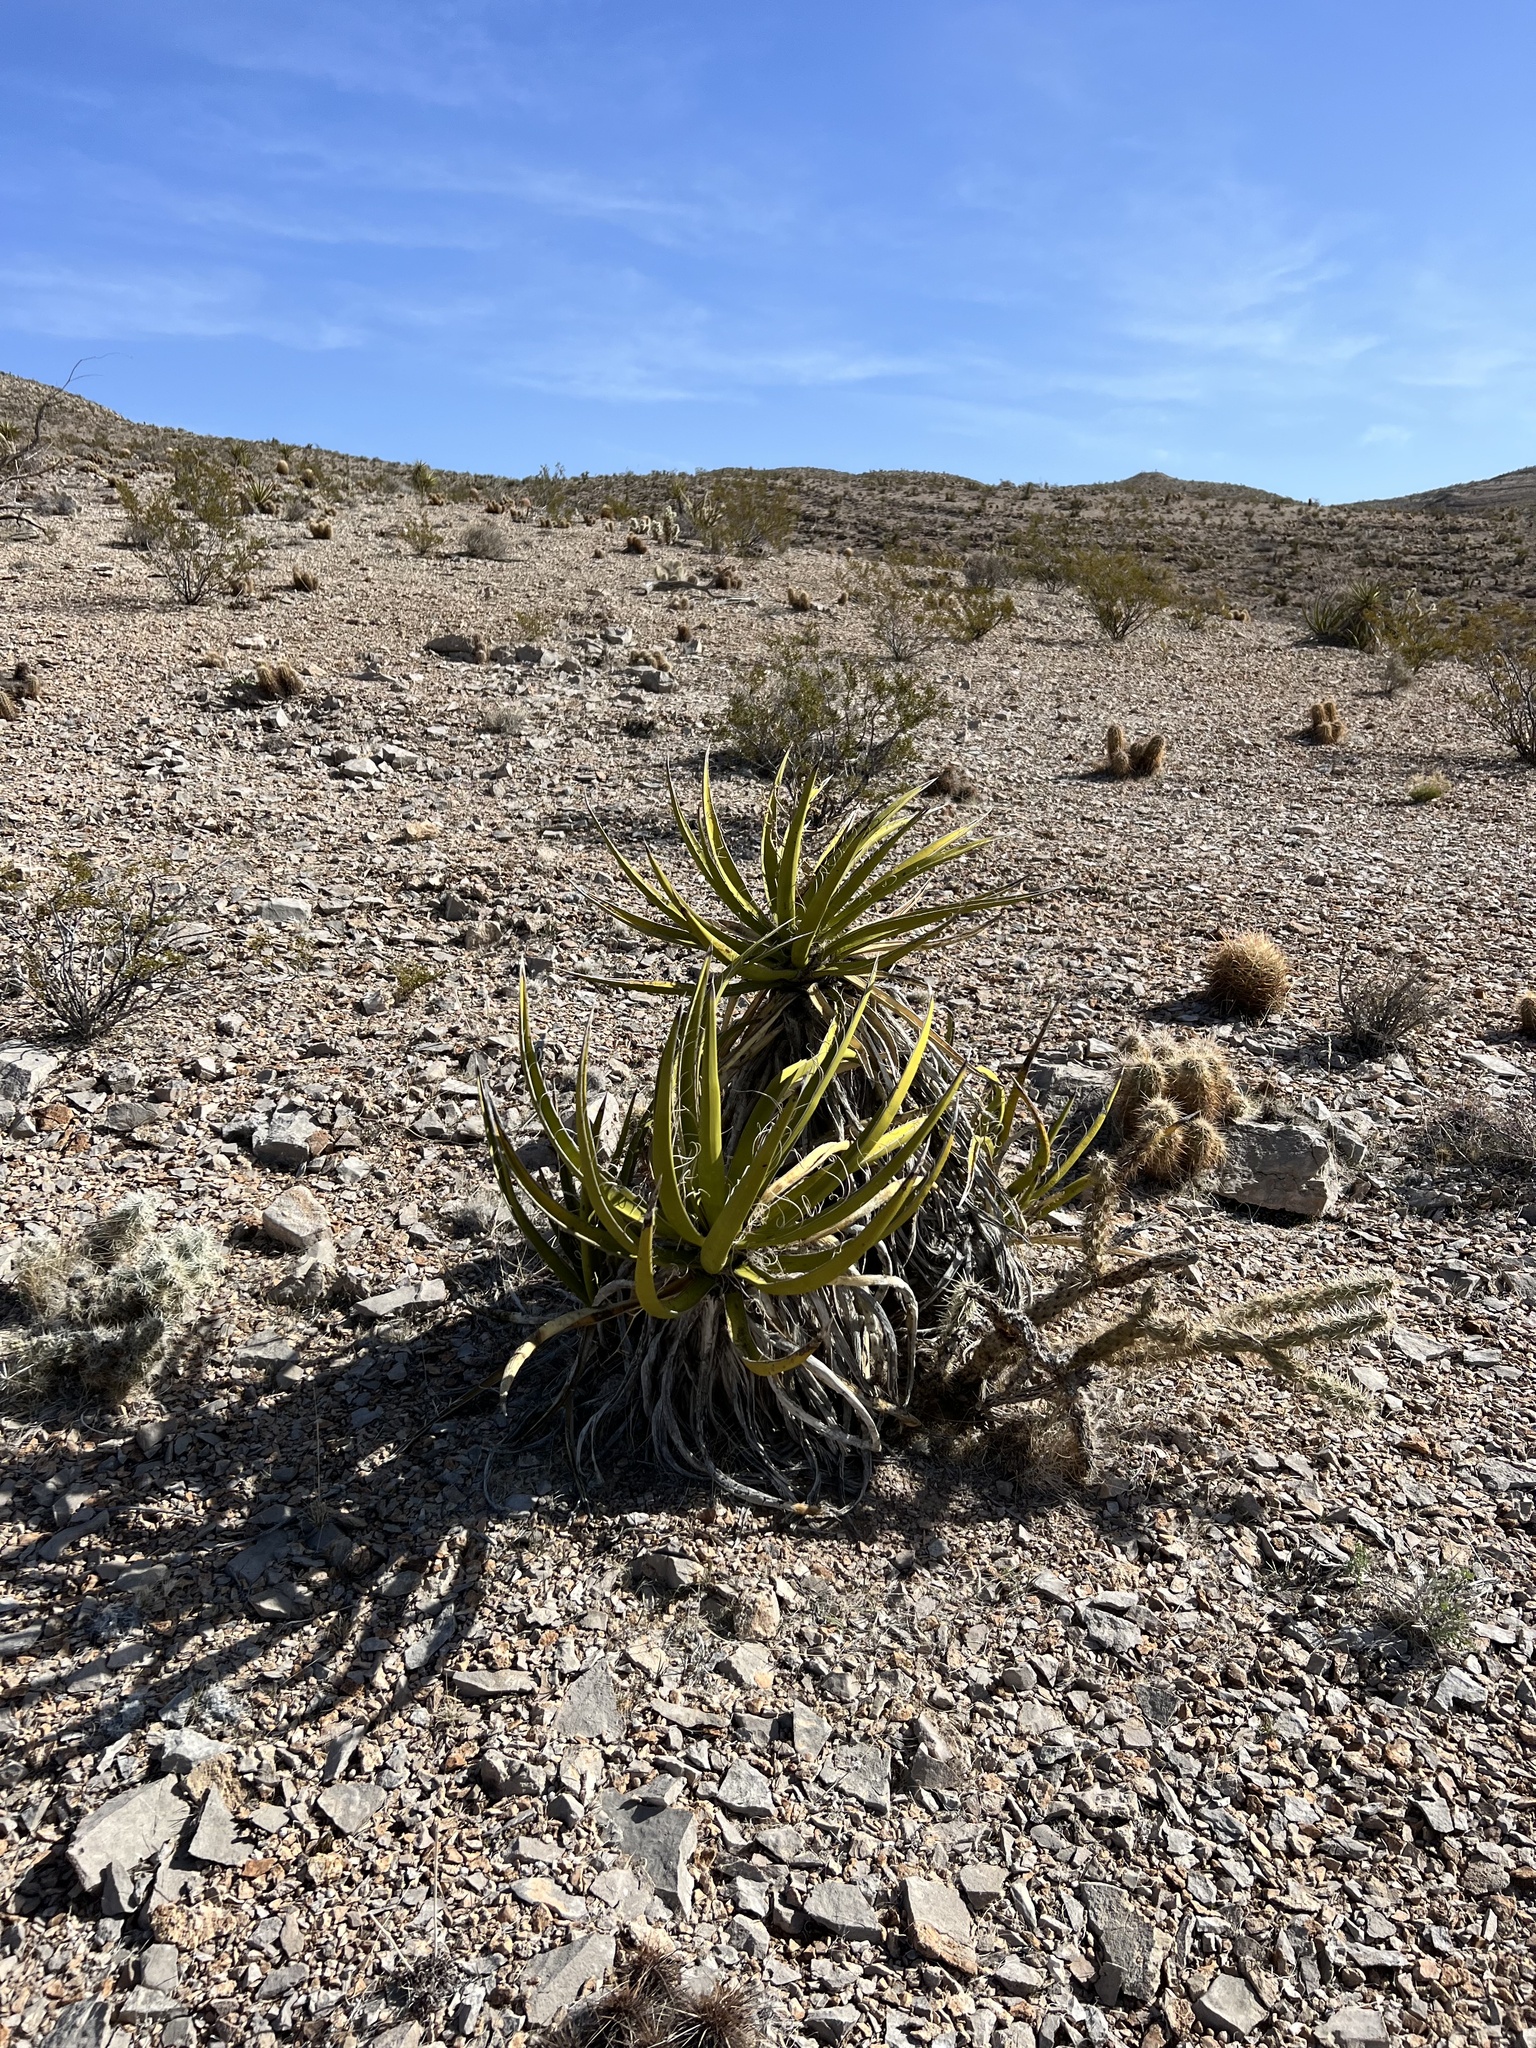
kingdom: Plantae
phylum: Tracheophyta
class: Liliopsida
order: Asparagales
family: Asparagaceae
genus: Yucca
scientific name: Yucca schidigera
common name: Mojave yucca
